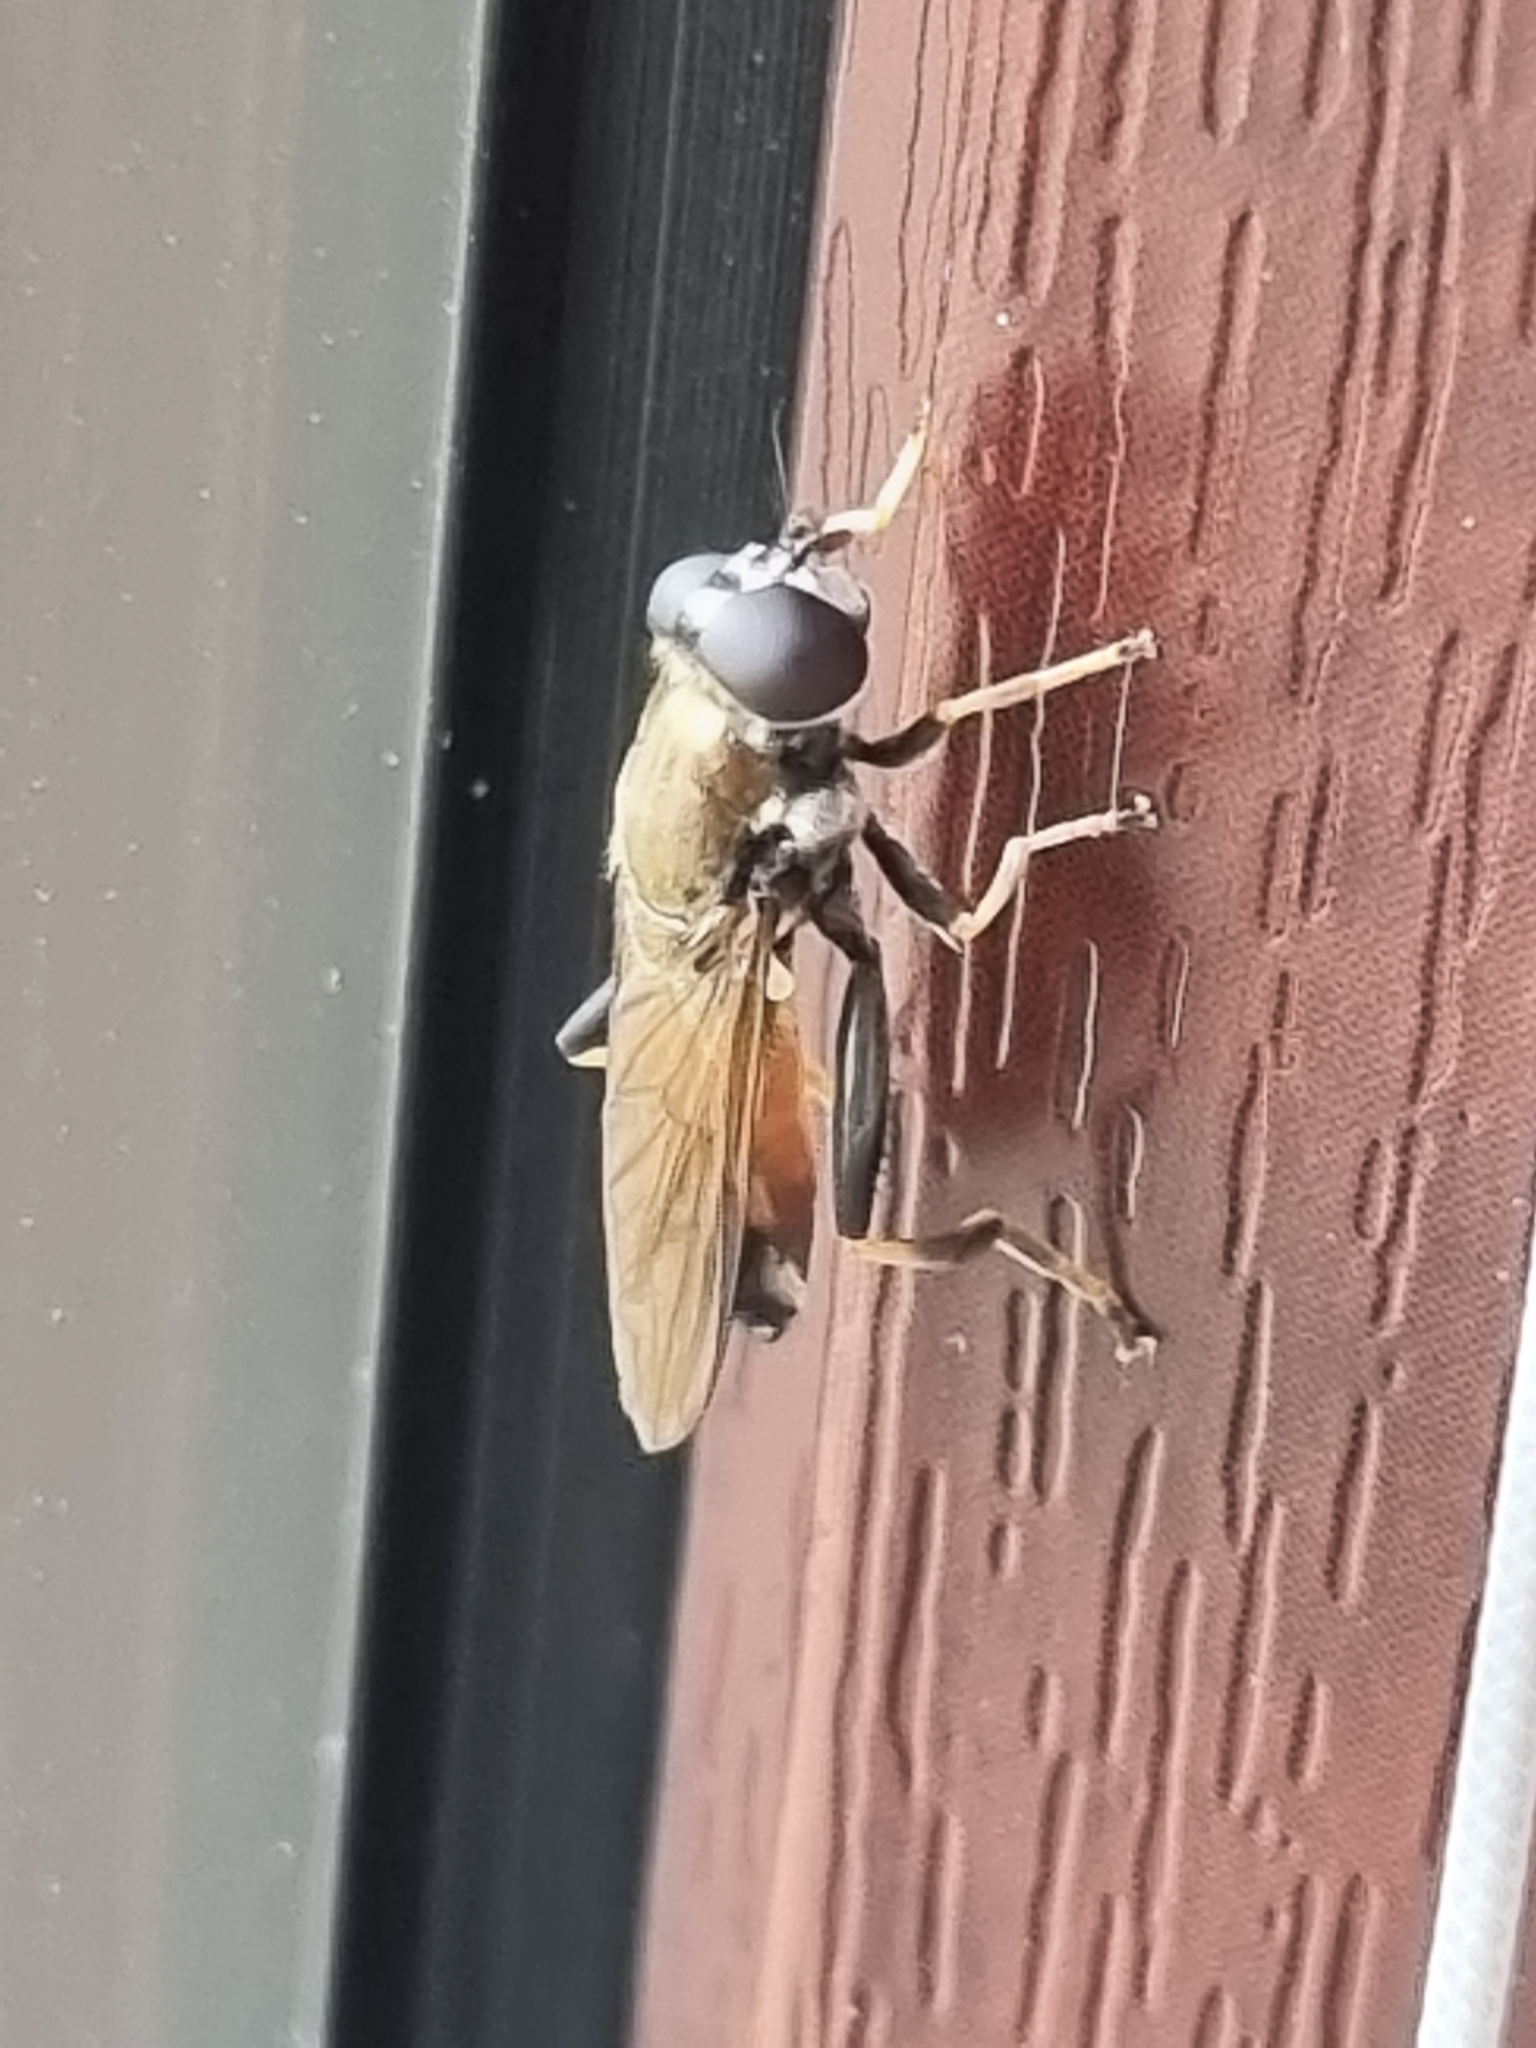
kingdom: Animalia
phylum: Arthropoda
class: Insecta
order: Diptera
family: Syrphidae
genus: Xylota
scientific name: Xylota segnis
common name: Brown-toed forest fly
